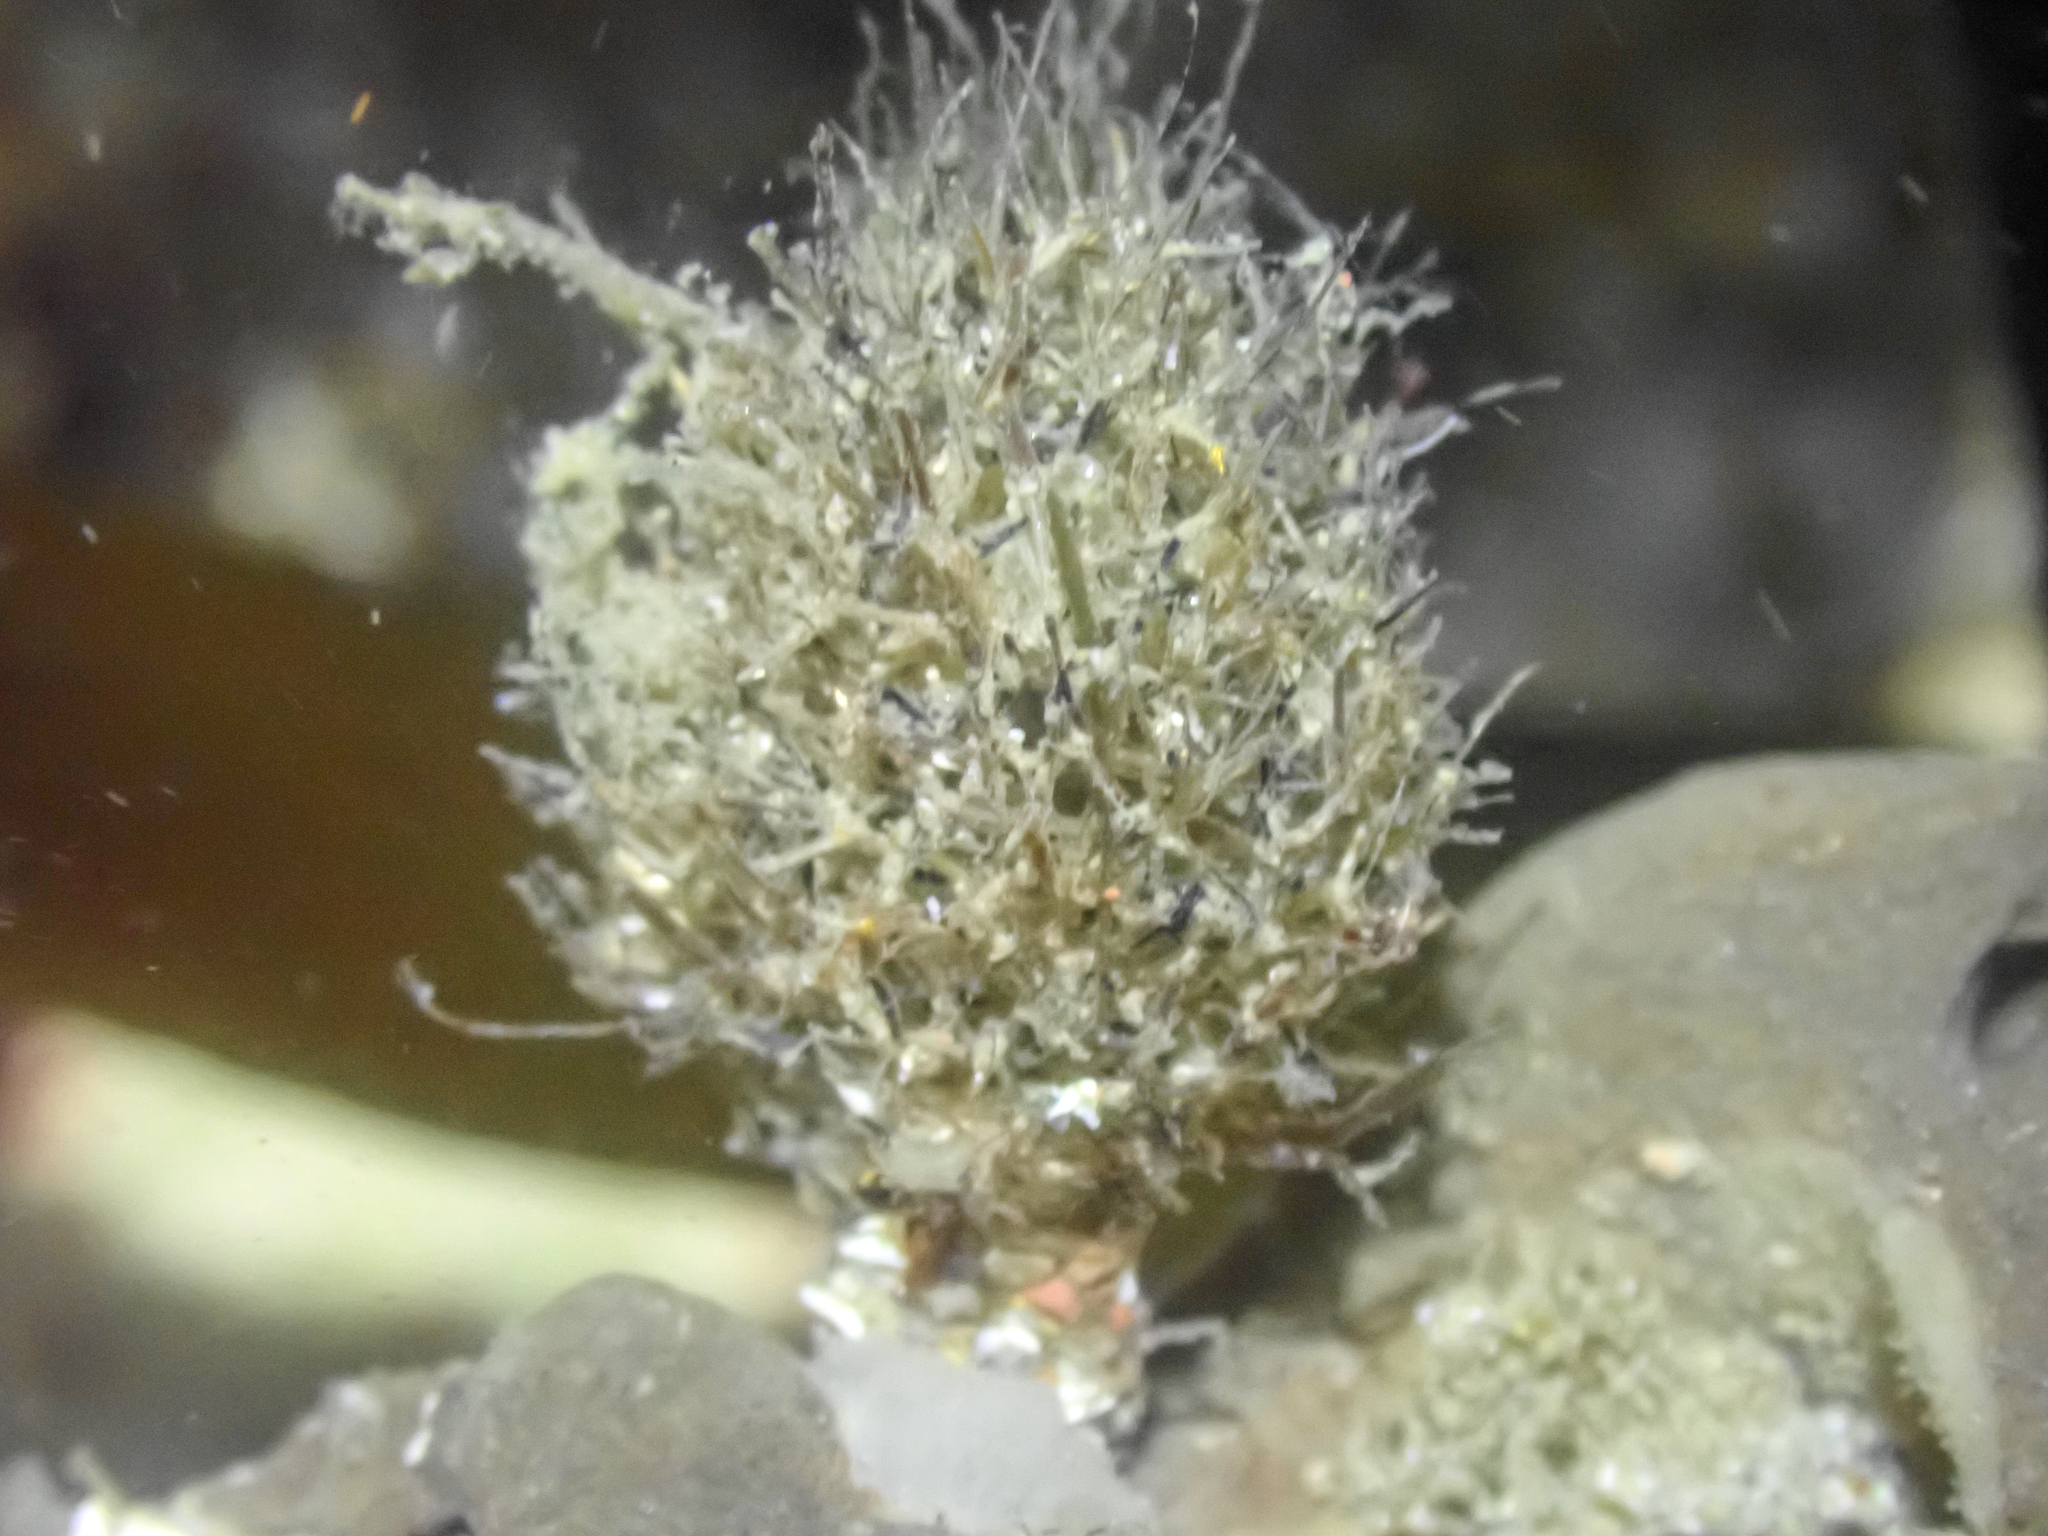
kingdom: Animalia
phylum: Annelida
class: Polychaeta
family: Terebellidae
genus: Pista
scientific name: Pista elongata
